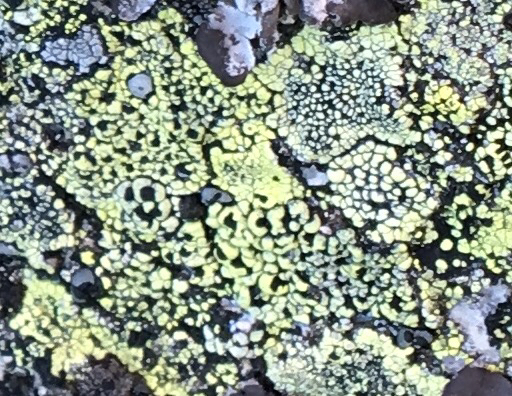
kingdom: Fungi
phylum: Ascomycota
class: Lecanoromycetes
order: Rhizocarpales
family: Rhizocarpaceae
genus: Rhizocarpon
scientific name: Rhizocarpon geographicum
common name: Yellow map lichen
